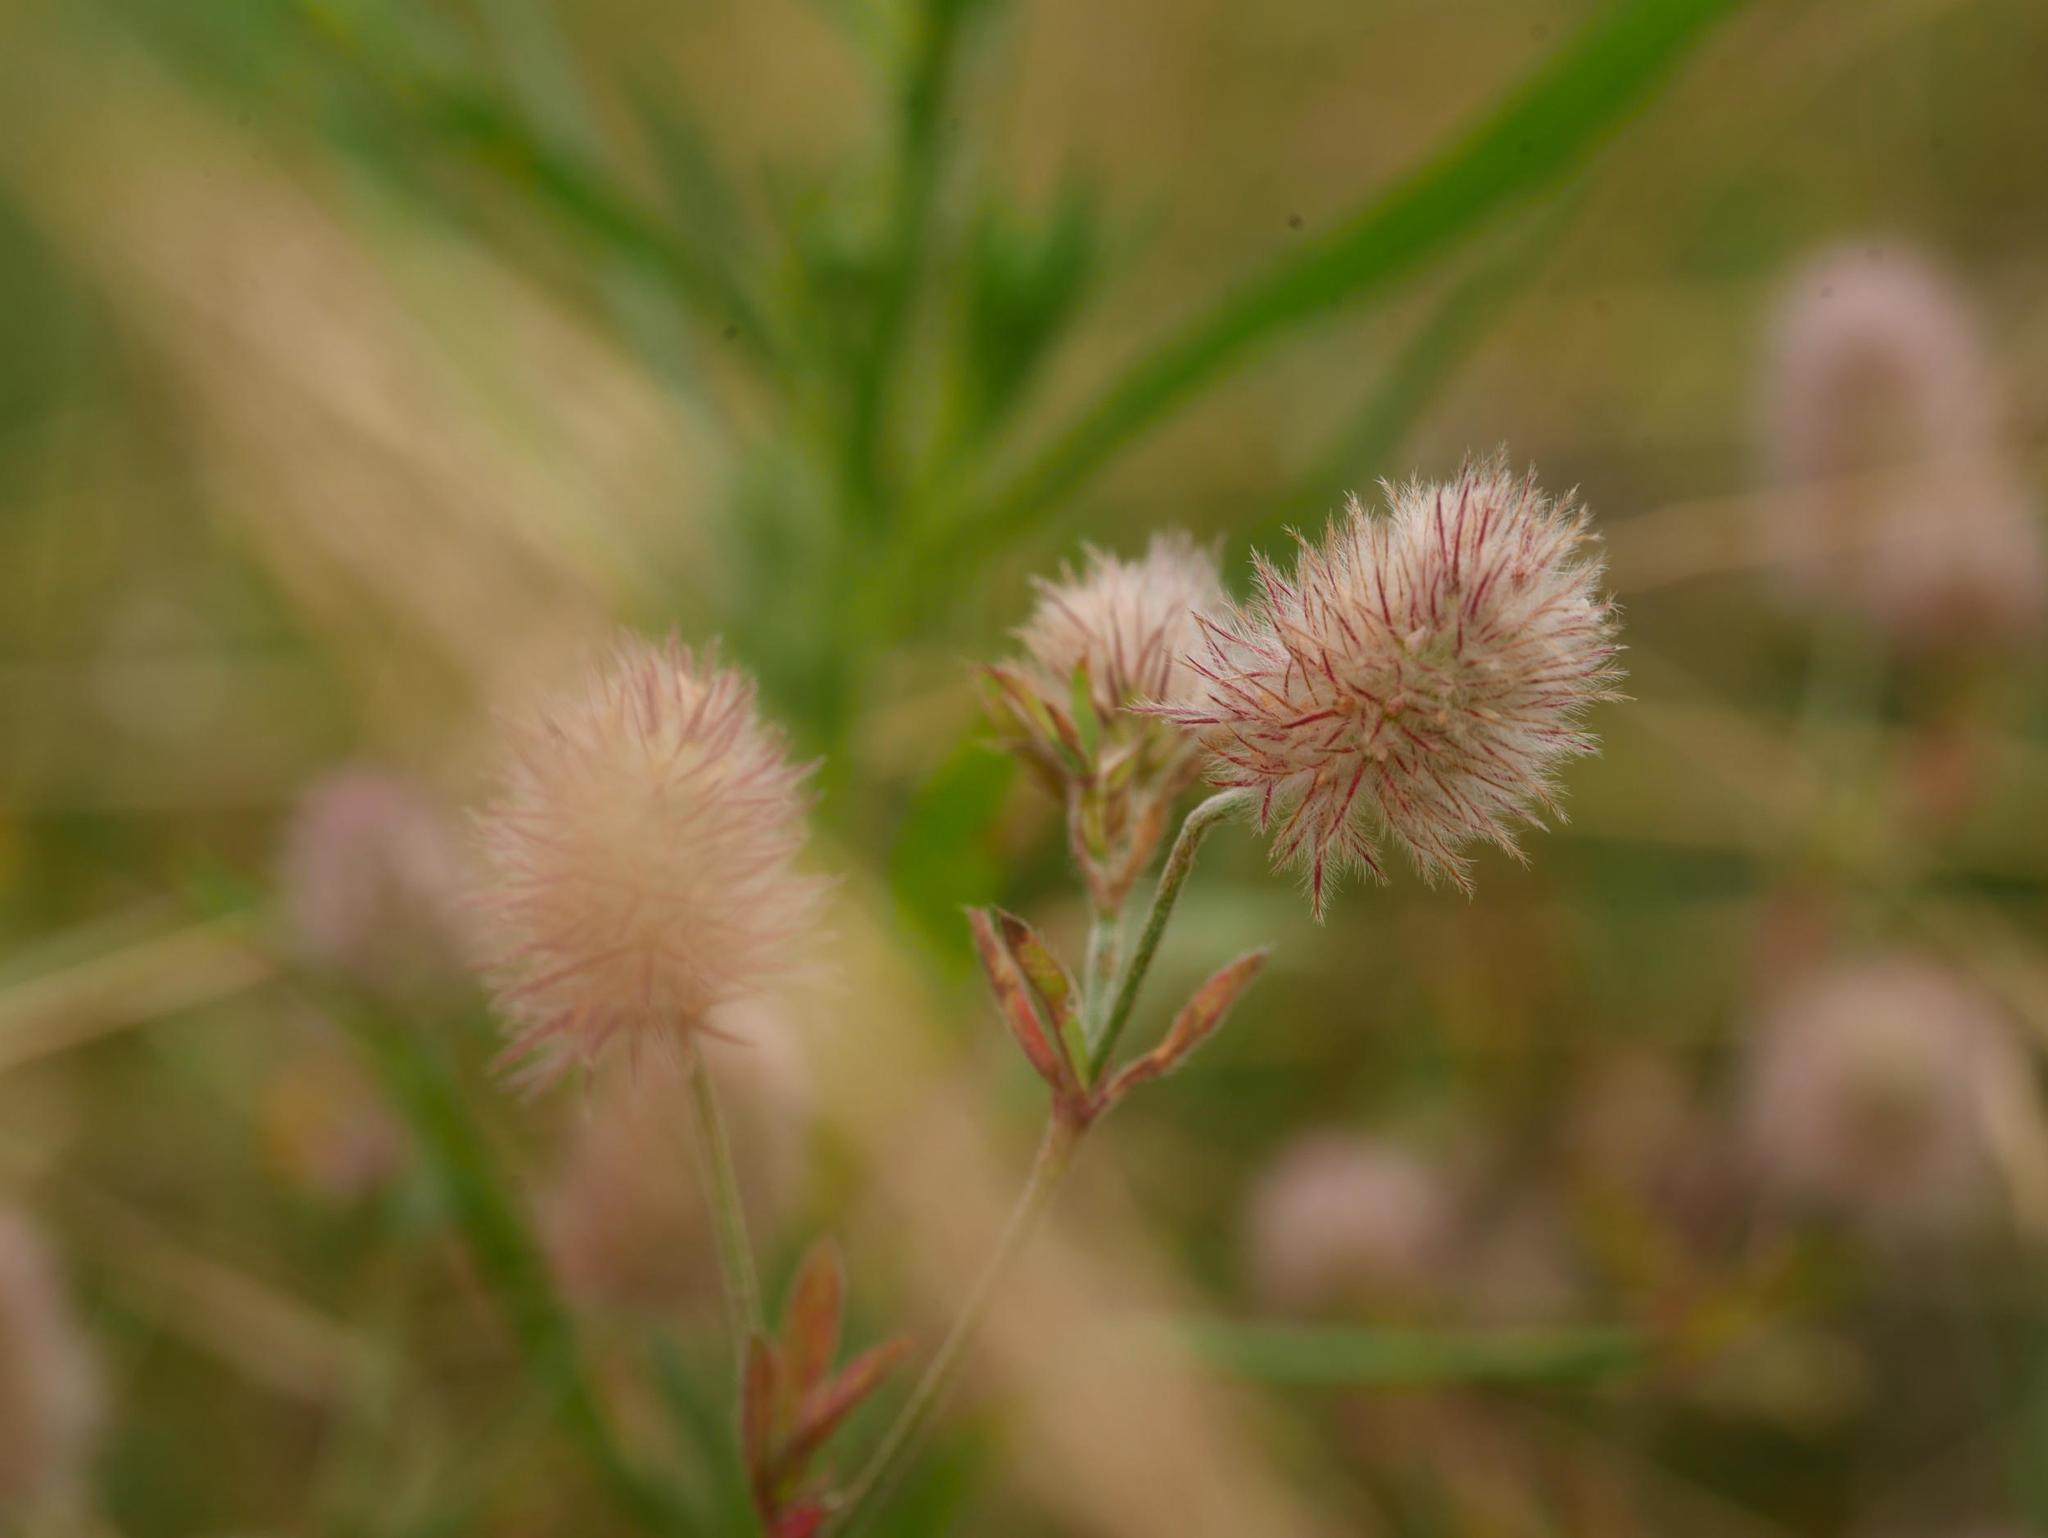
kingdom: Plantae
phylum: Tracheophyta
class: Magnoliopsida
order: Fabales
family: Fabaceae
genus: Trifolium
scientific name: Trifolium arvense
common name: Hare's-foot clover
